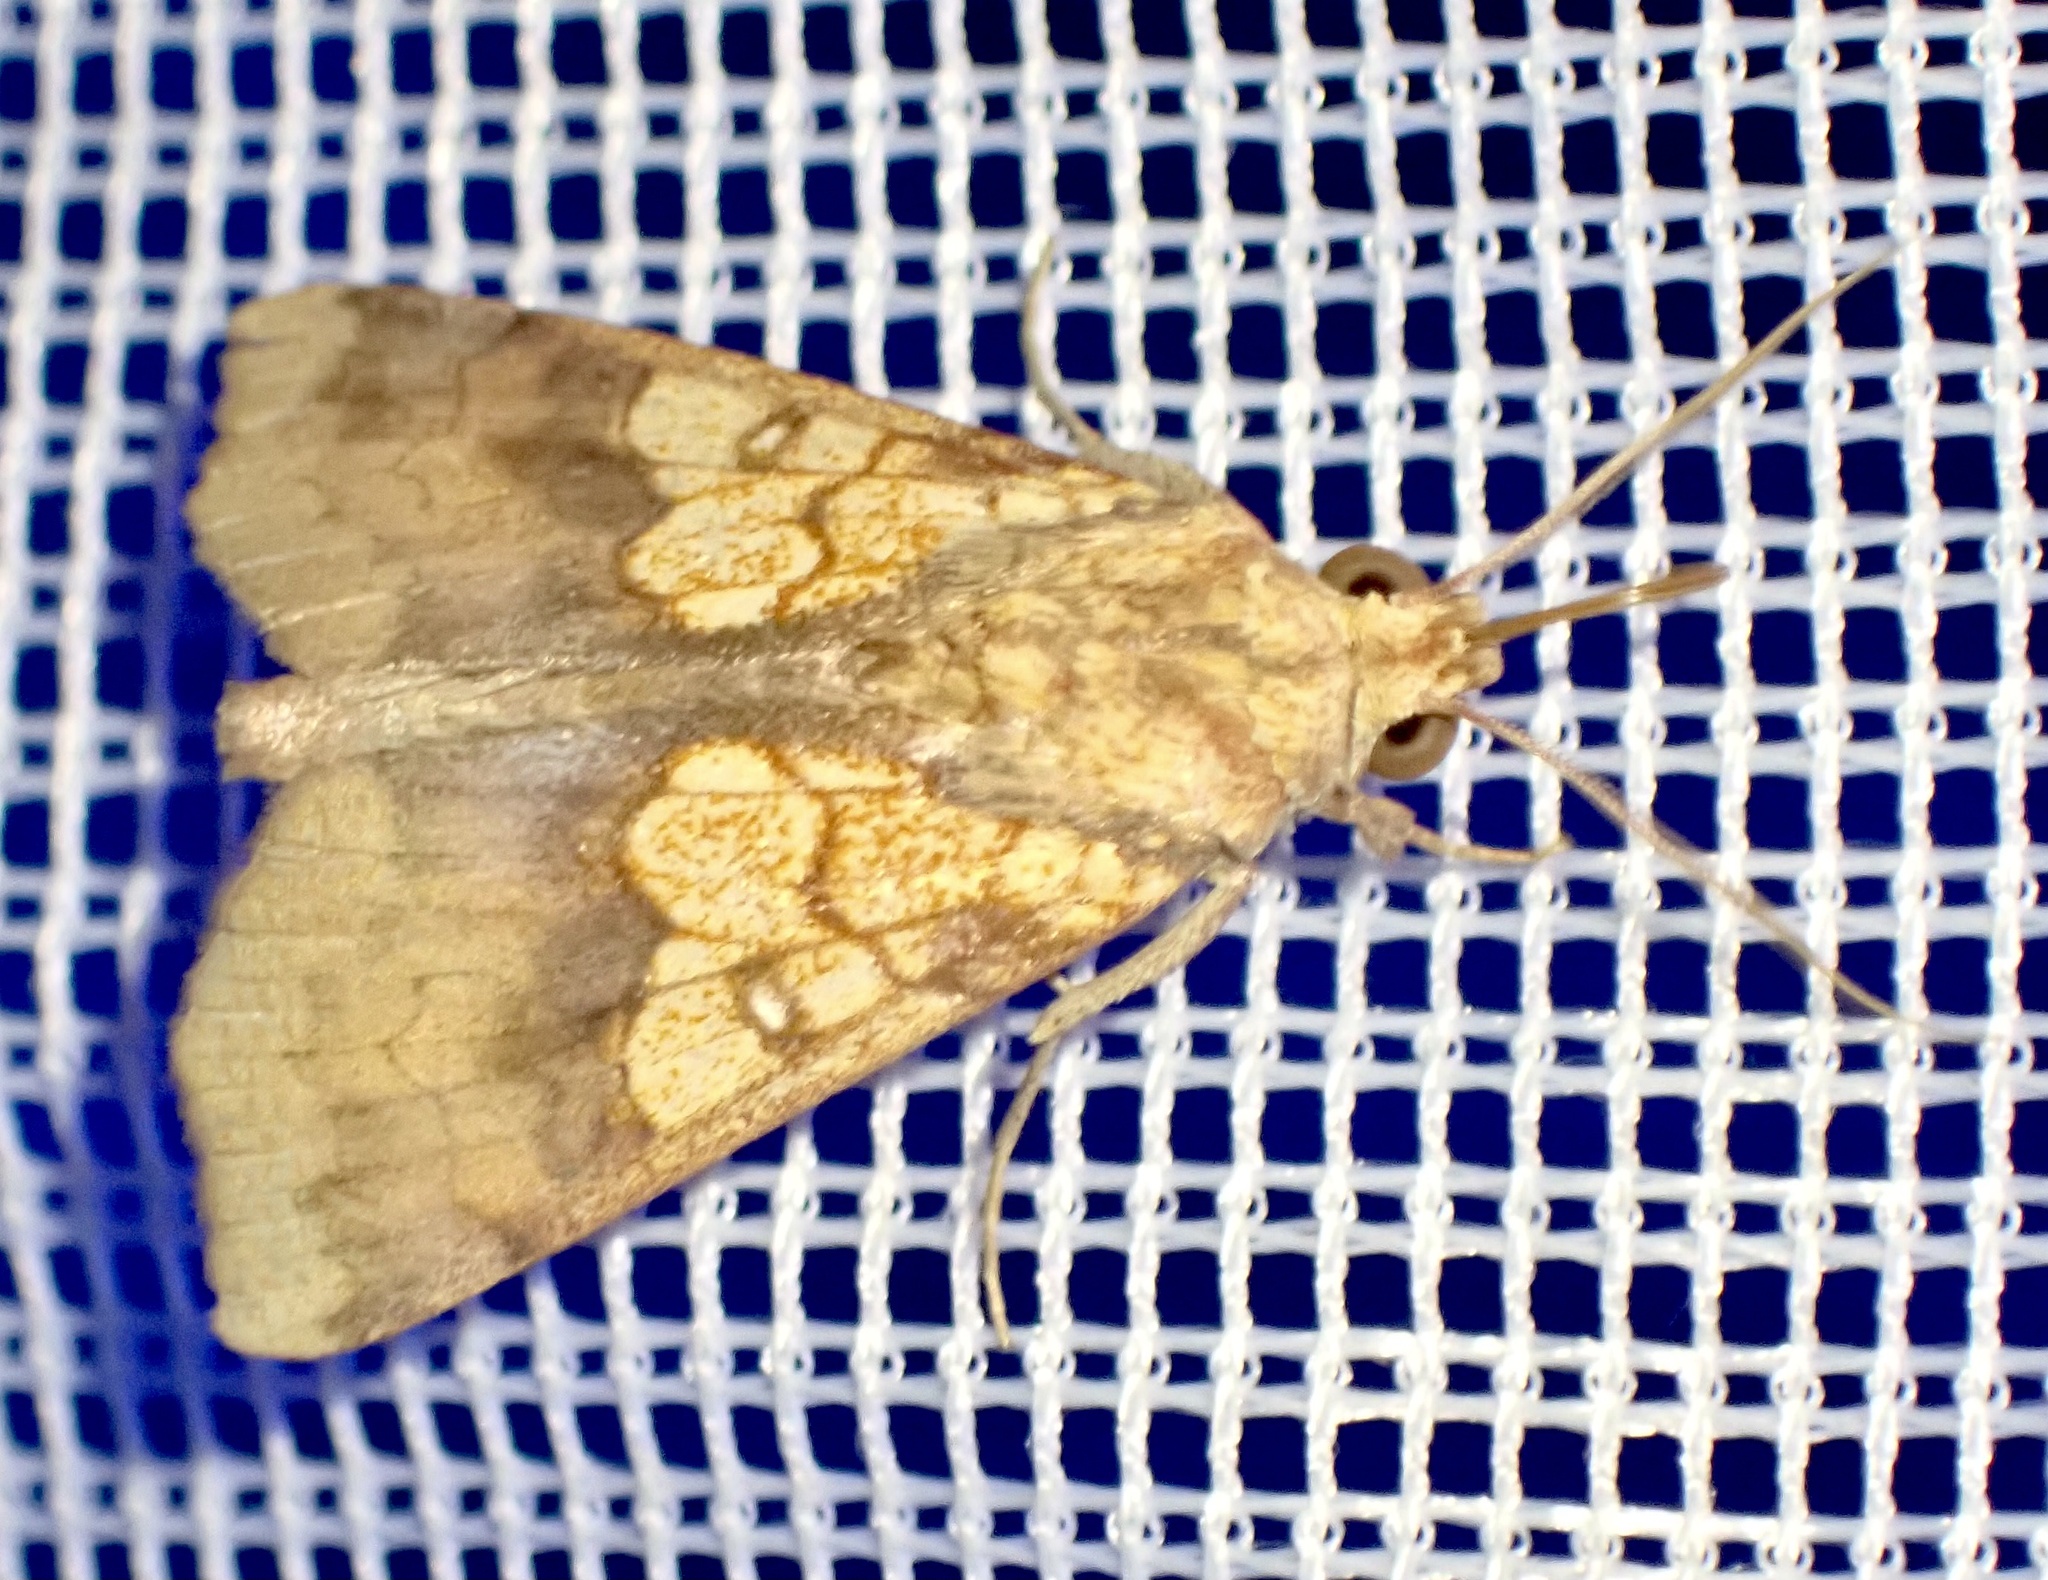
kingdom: Animalia
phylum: Arthropoda
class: Insecta
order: Lepidoptera
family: Erebidae
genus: Anomis
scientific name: Anomis flava
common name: Moth
